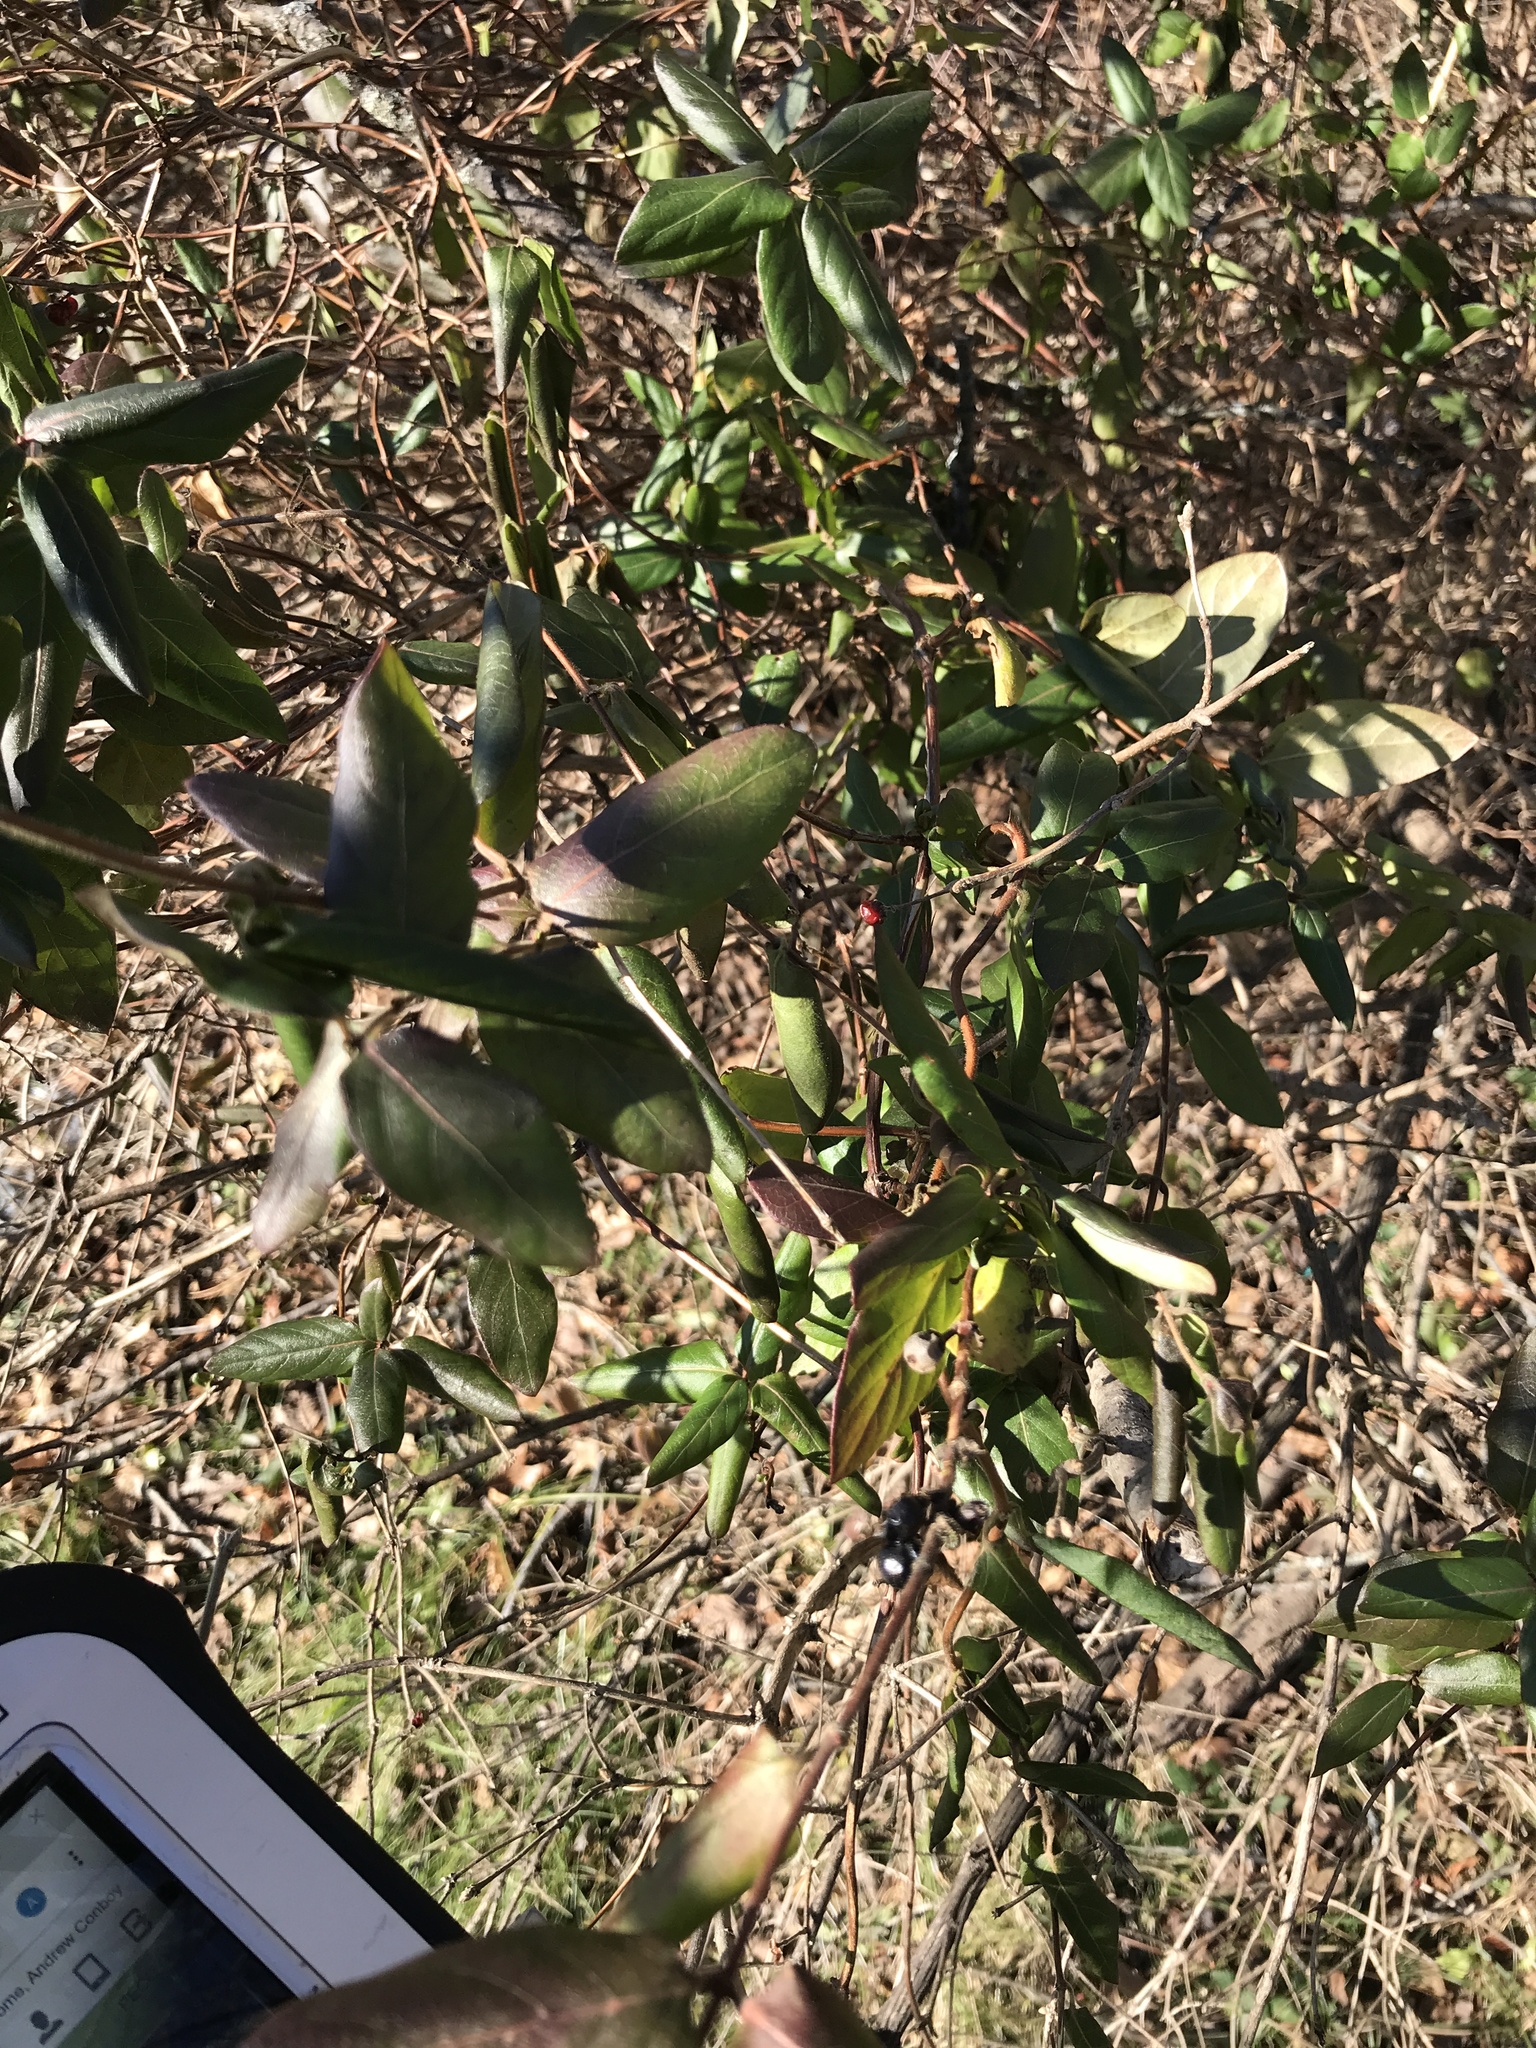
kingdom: Plantae
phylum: Tracheophyta
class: Magnoliopsida
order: Dipsacales
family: Caprifoliaceae
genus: Lonicera
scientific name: Lonicera japonica
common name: Japanese honeysuckle
